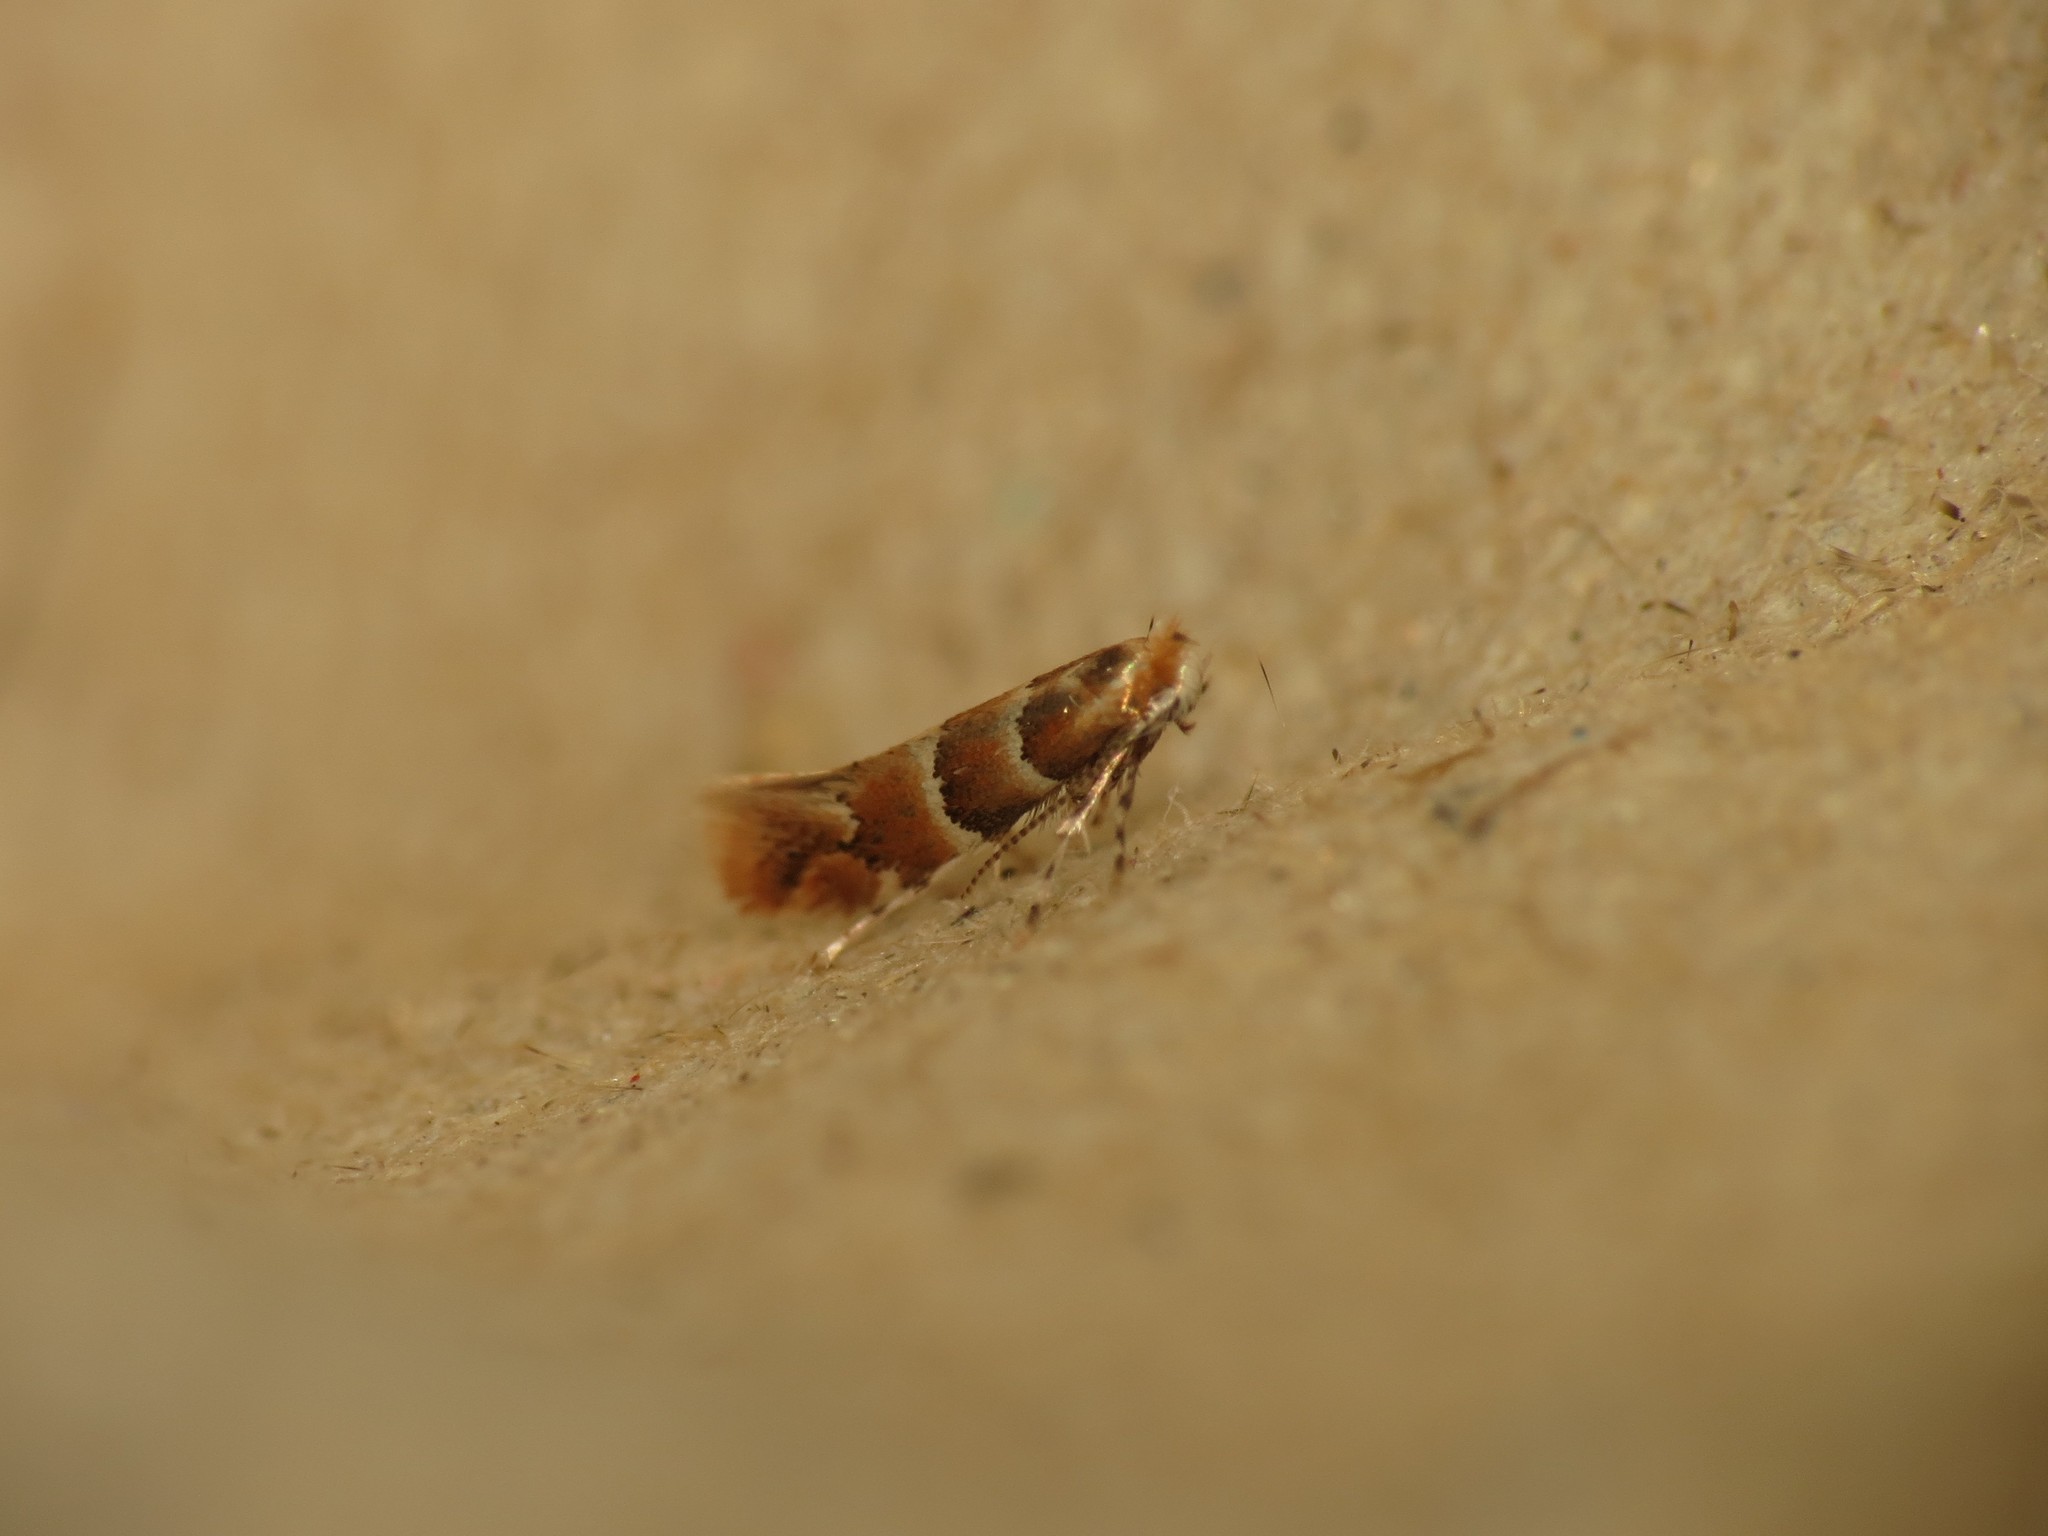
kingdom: Animalia
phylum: Arthropoda
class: Insecta
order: Lepidoptera
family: Gracillariidae
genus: Phyllonorycter
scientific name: Phyllonorycter tristrigella
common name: Elm midget
